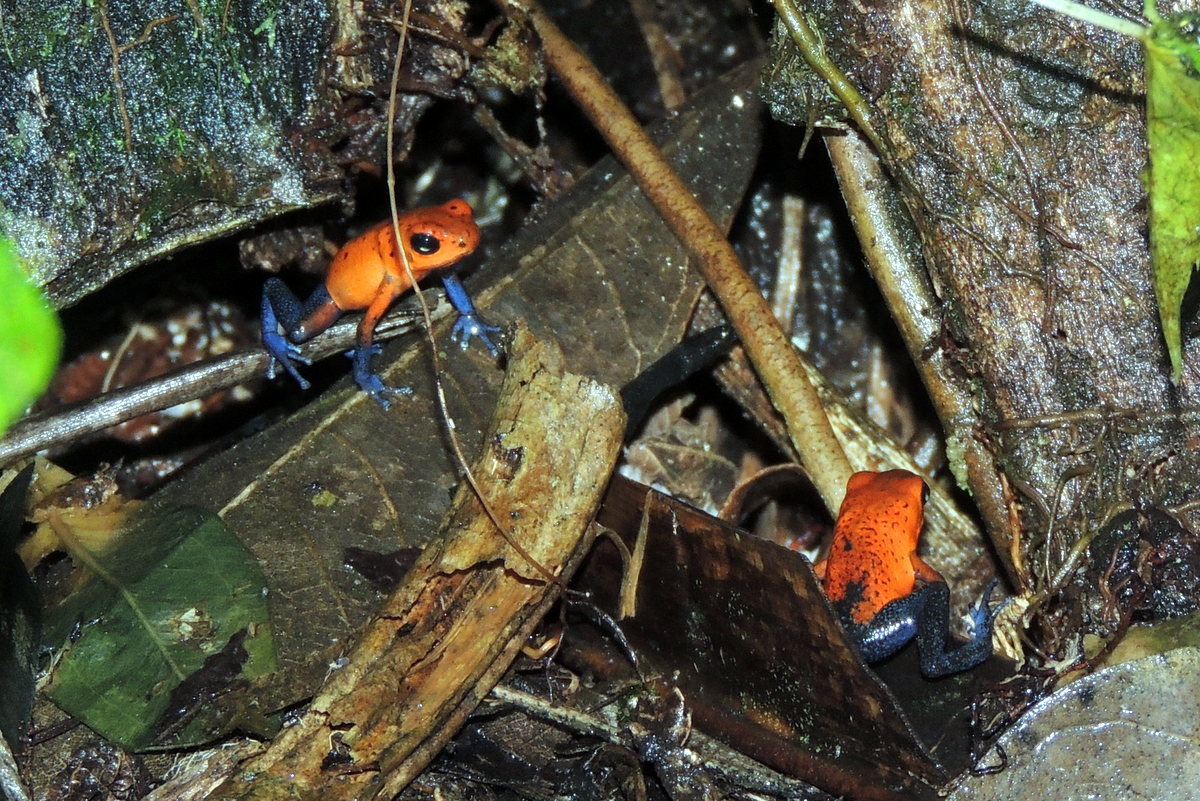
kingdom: Animalia
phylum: Chordata
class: Amphibia
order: Anura
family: Dendrobatidae
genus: Oophaga
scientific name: Oophaga pumilio
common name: Flaming poison frog
